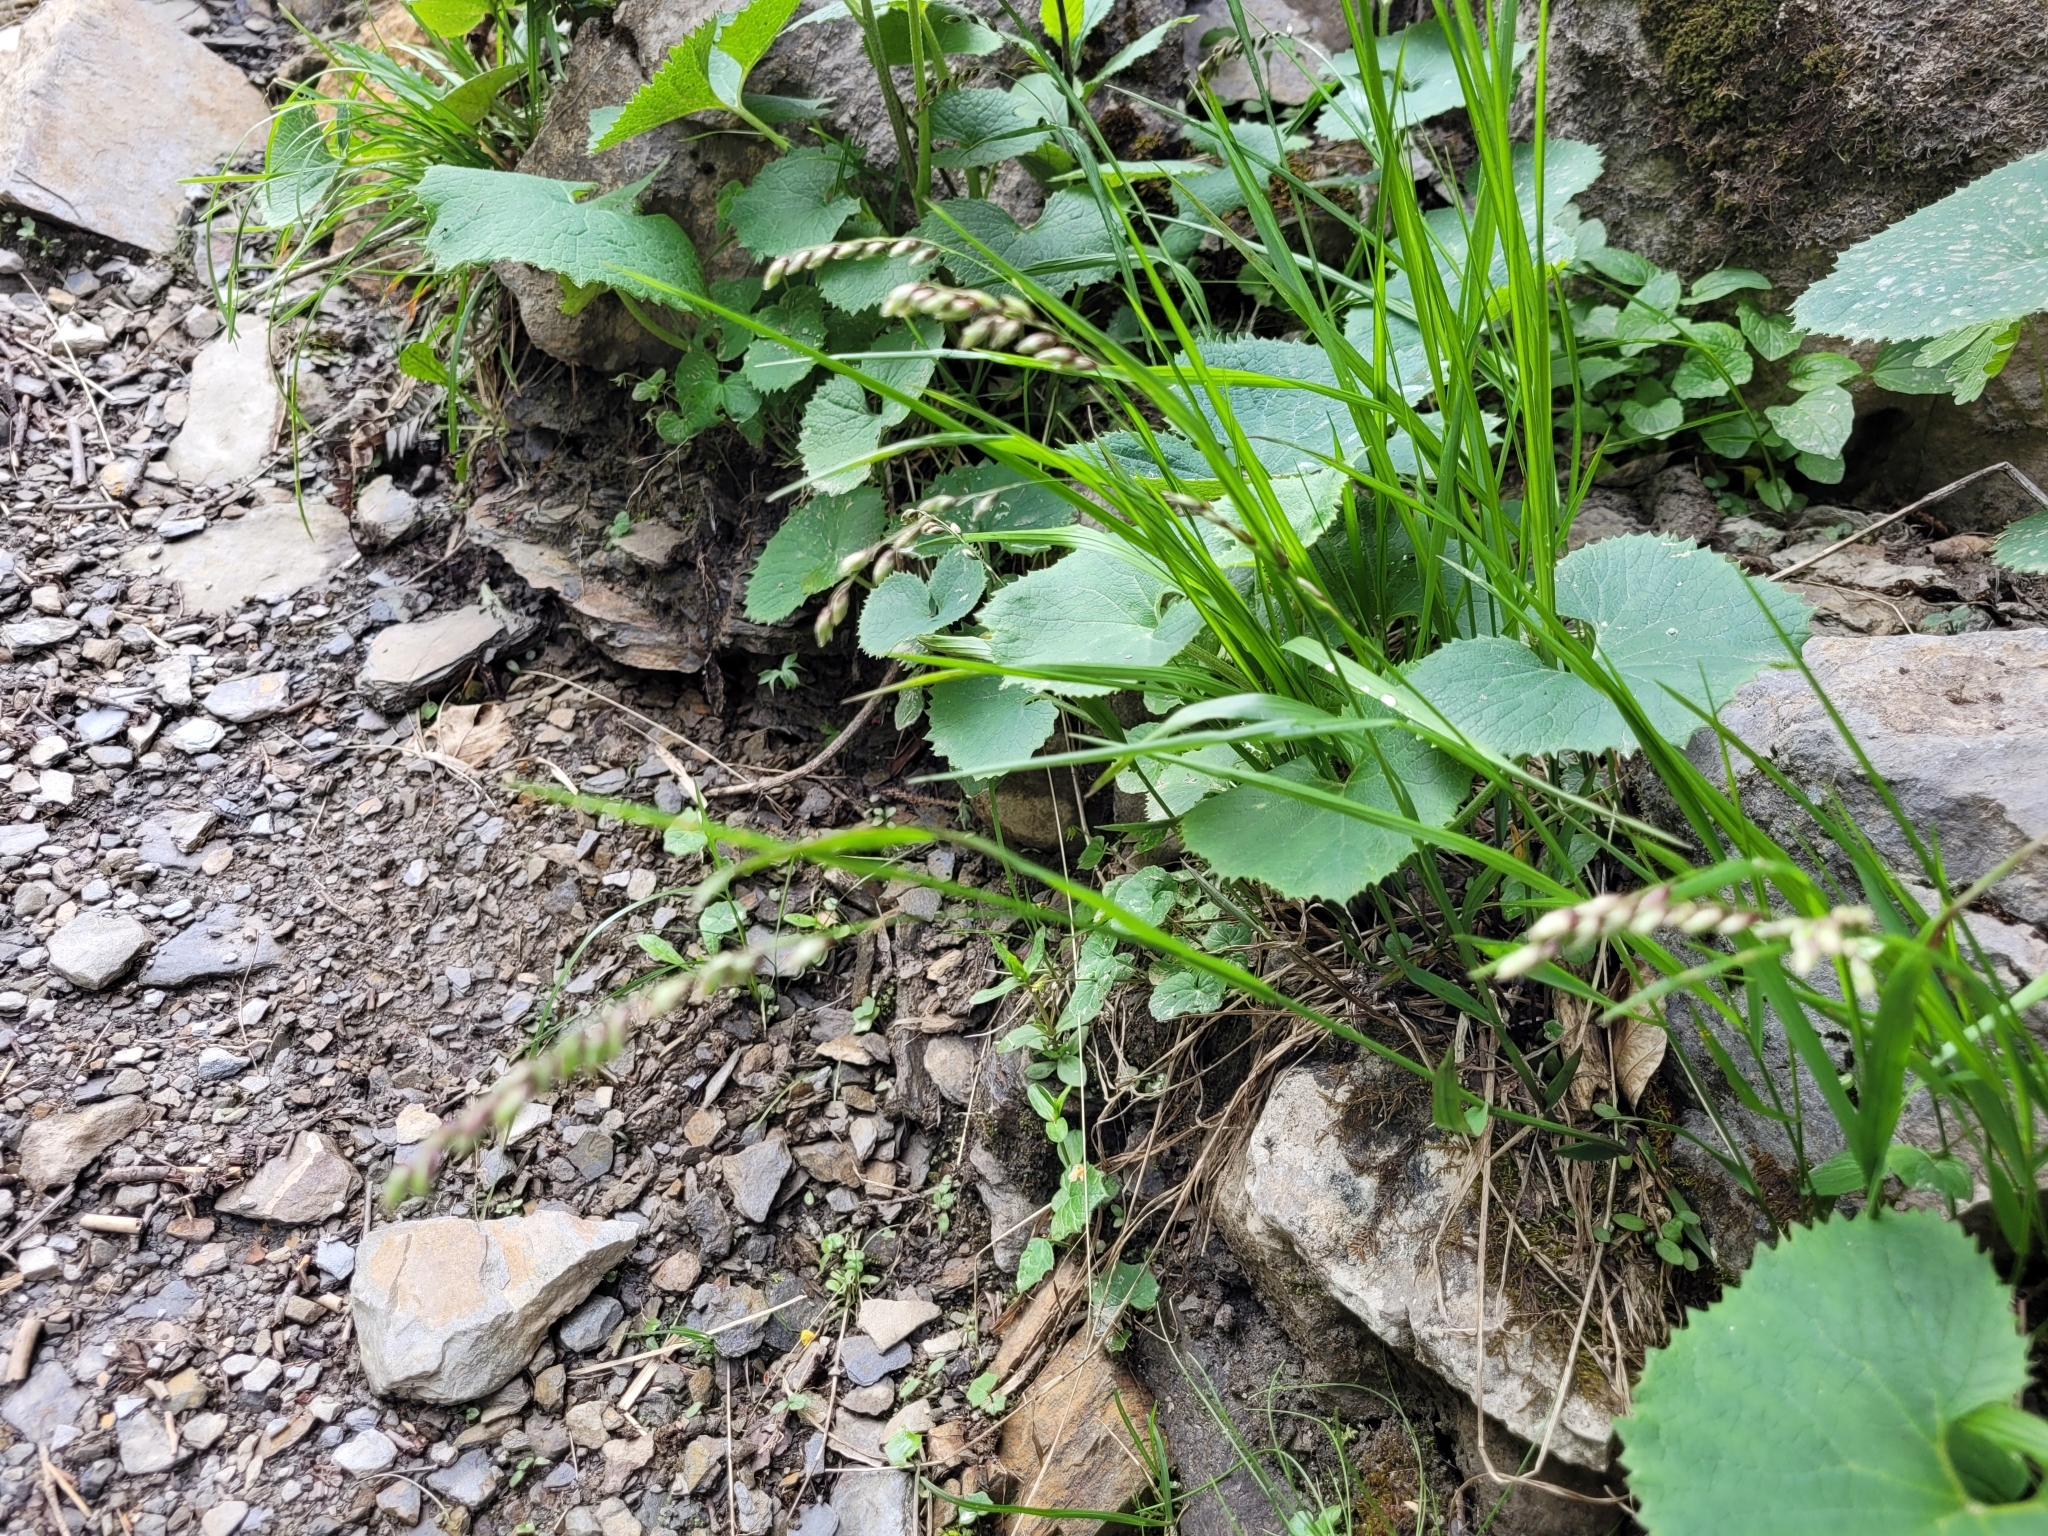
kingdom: Plantae
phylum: Tracheophyta
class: Liliopsida
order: Poales
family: Poaceae
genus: Melica
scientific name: Melica nutans
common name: Mountain melick
